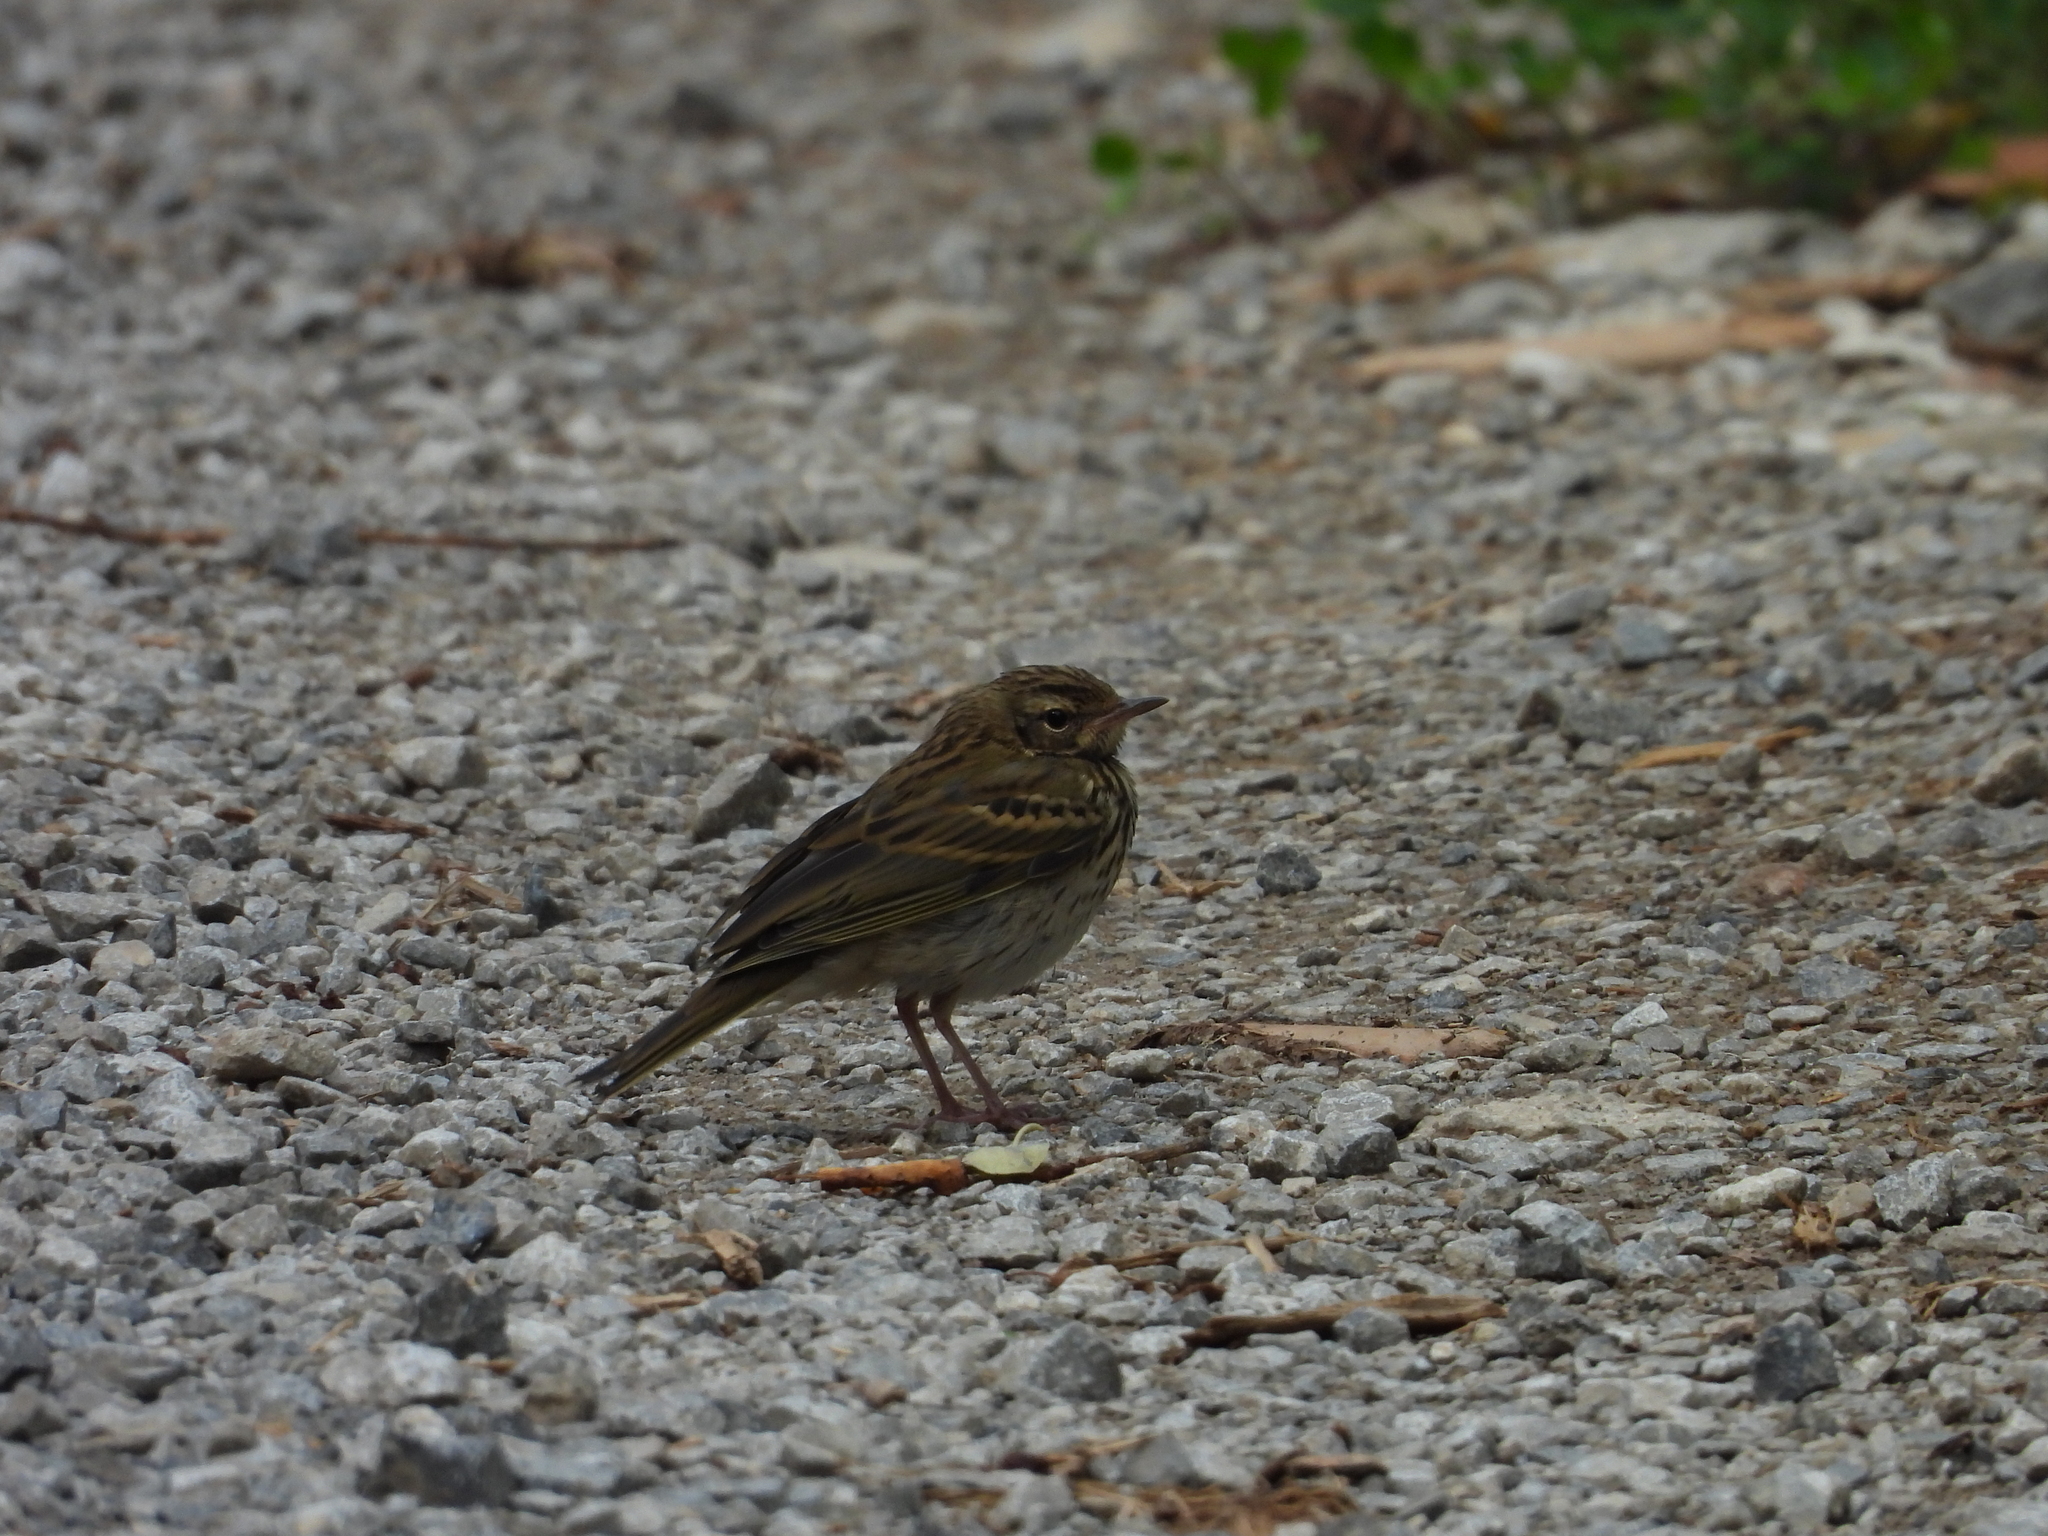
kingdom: Animalia
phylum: Chordata
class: Aves
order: Passeriformes
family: Motacillidae
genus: Anthus
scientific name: Anthus trivialis
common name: Tree pipit
